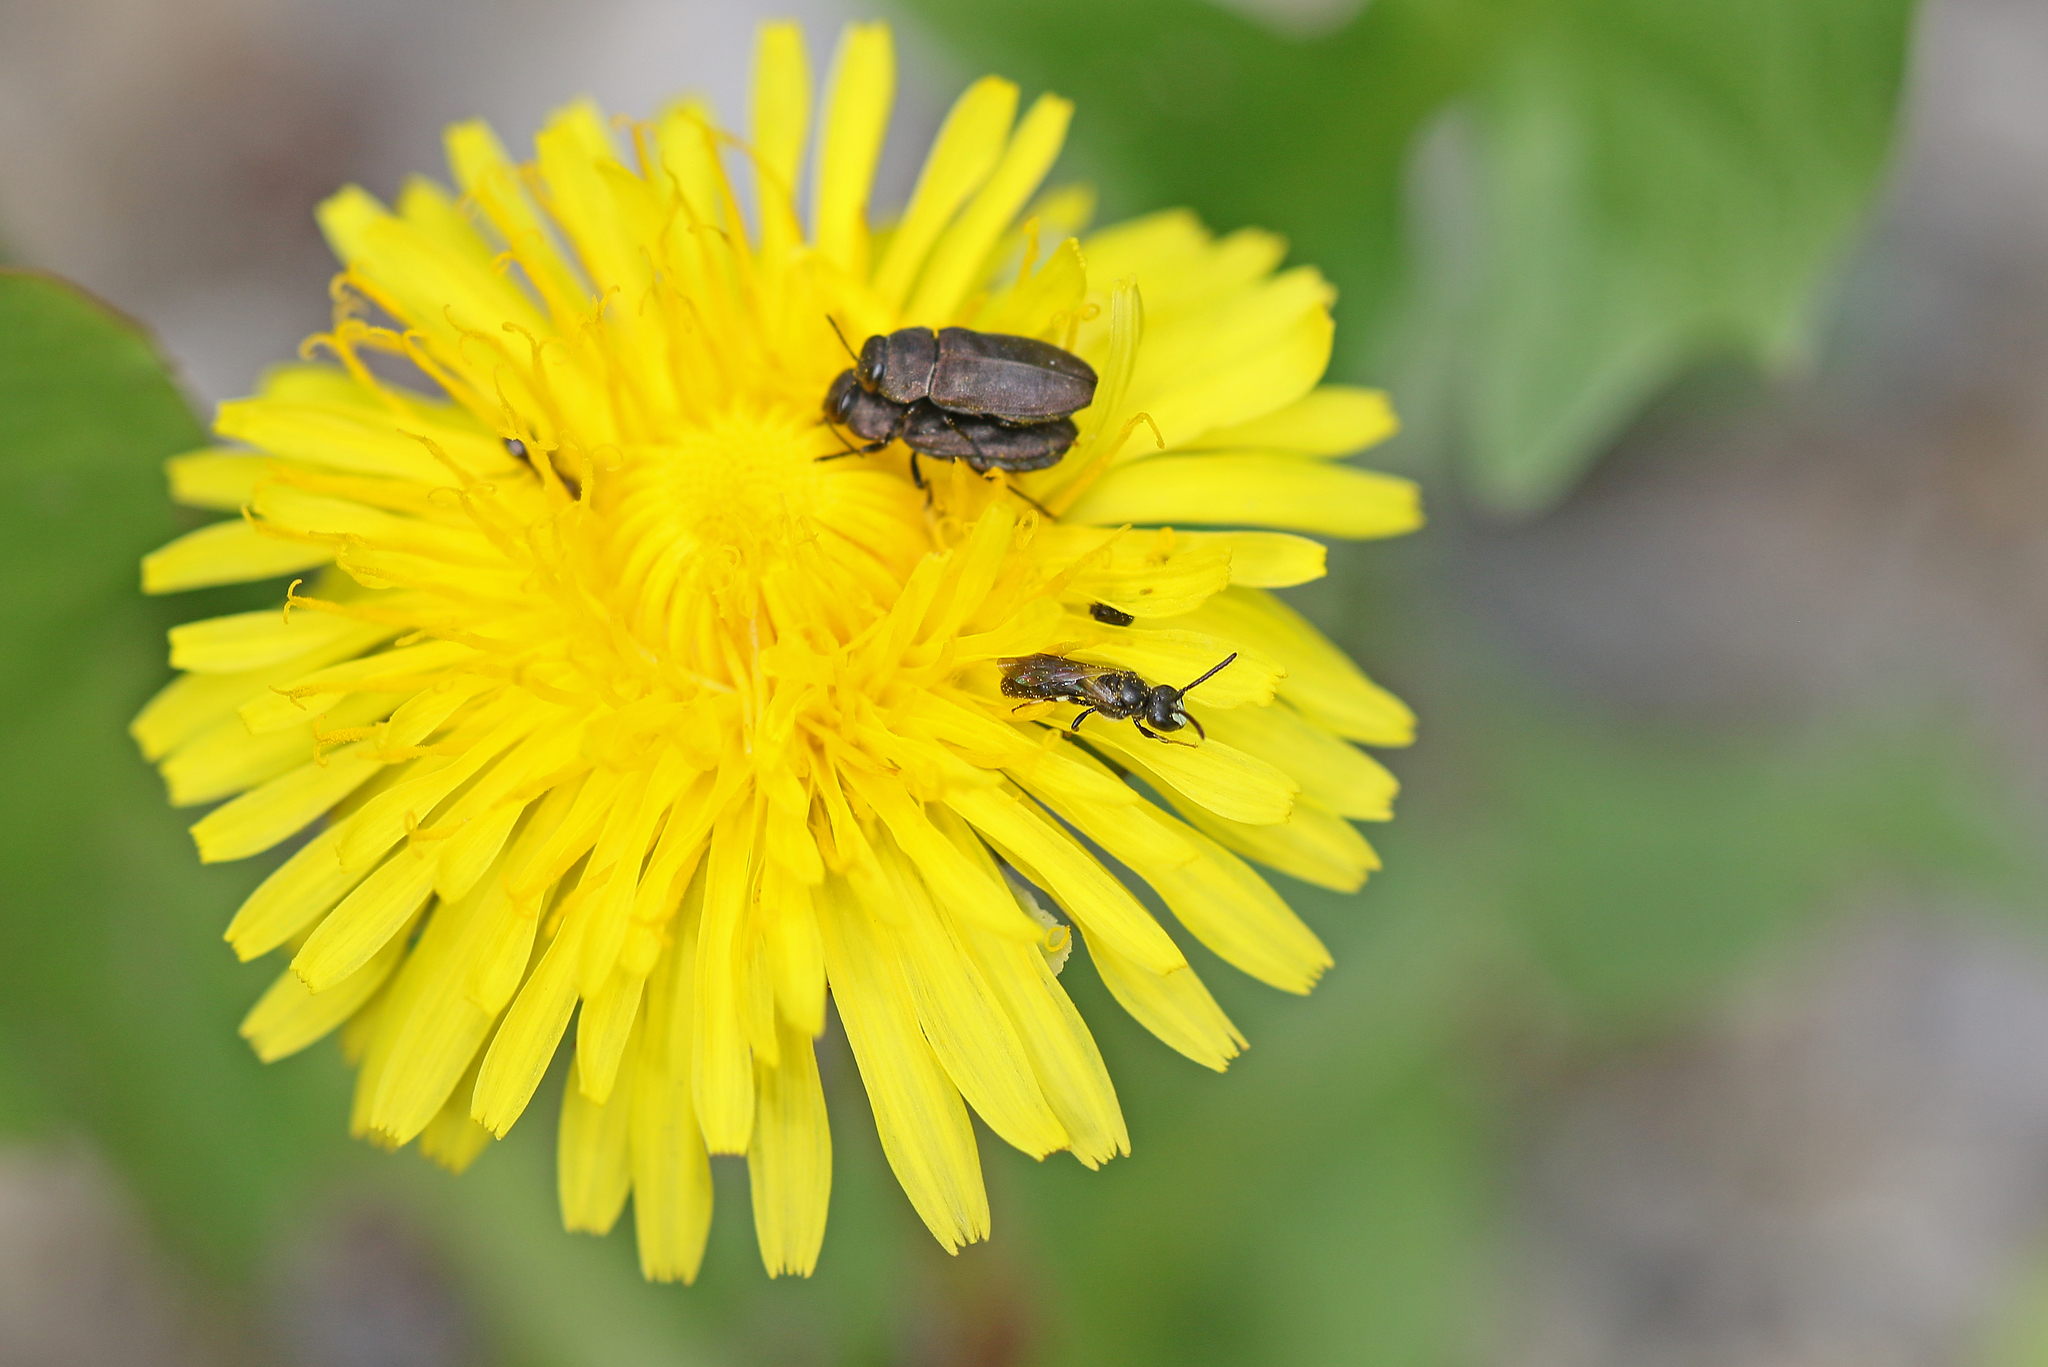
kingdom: Animalia
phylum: Arthropoda
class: Insecta
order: Hymenoptera
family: Colletidae
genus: Hylaeus
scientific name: Hylaeus communis
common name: Common yellow-face bee
